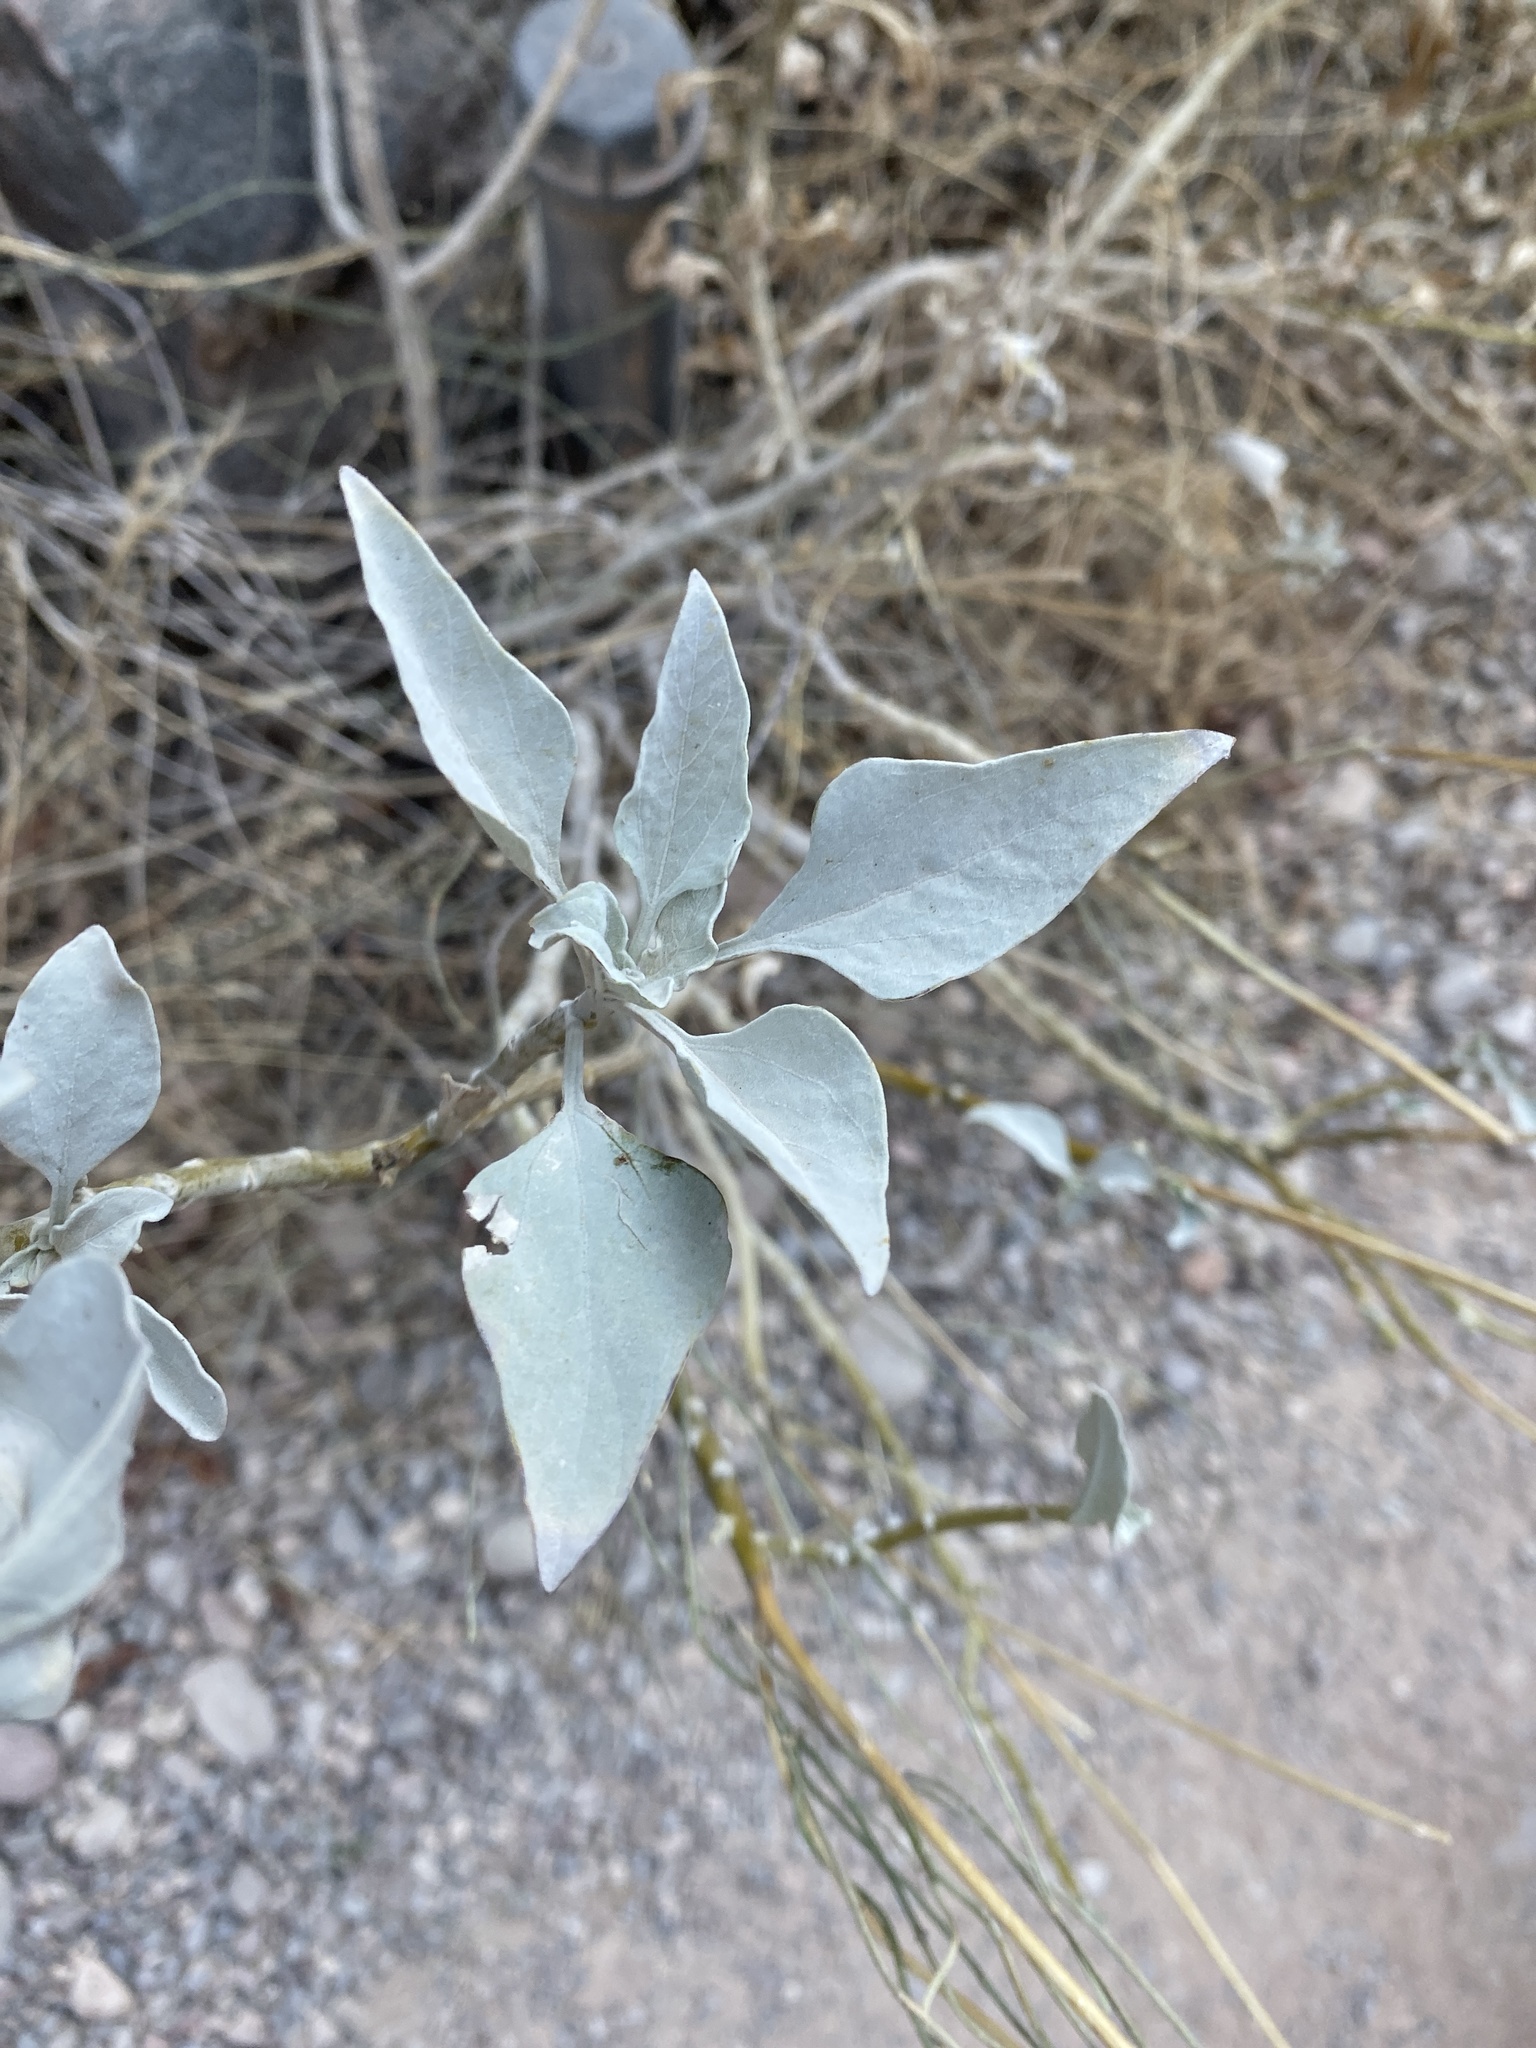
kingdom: Plantae
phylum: Tracheophyta
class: Magnoliopsida
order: Asterales
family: Asteraceae
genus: Encelia
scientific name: Encelia farinosa
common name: Brittlebush
